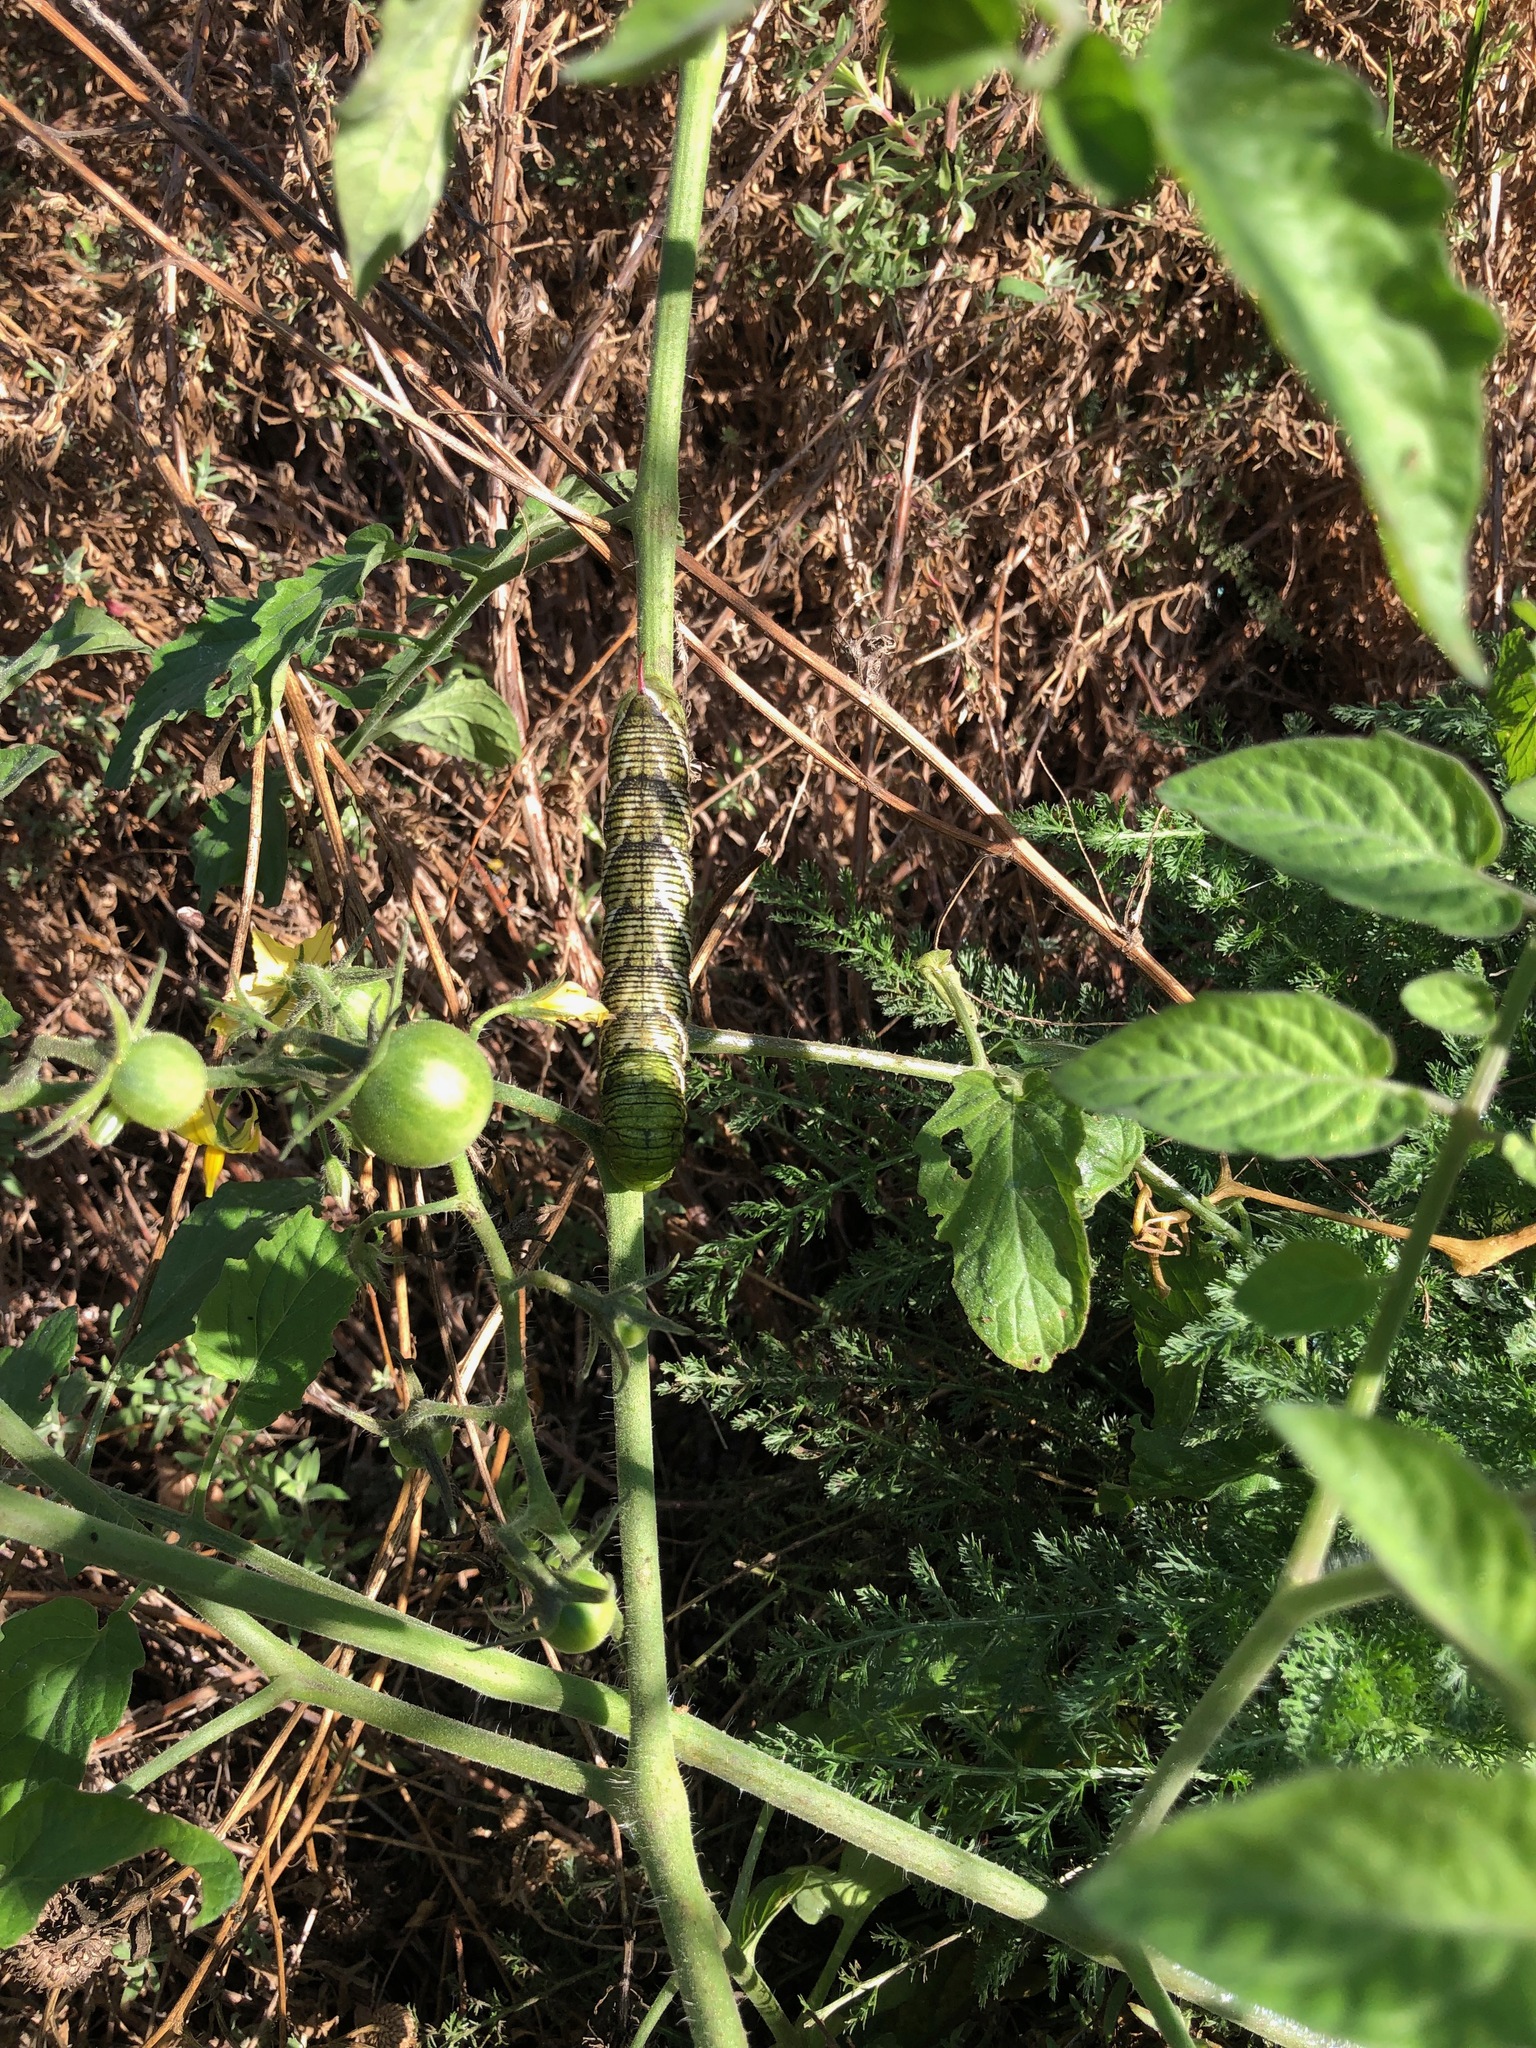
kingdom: Animalia
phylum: Arthropoda
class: Insecta
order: Lepidoptera
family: Sphingidae
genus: Manduca
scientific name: Manduca sexta
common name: Carolina sphinx
